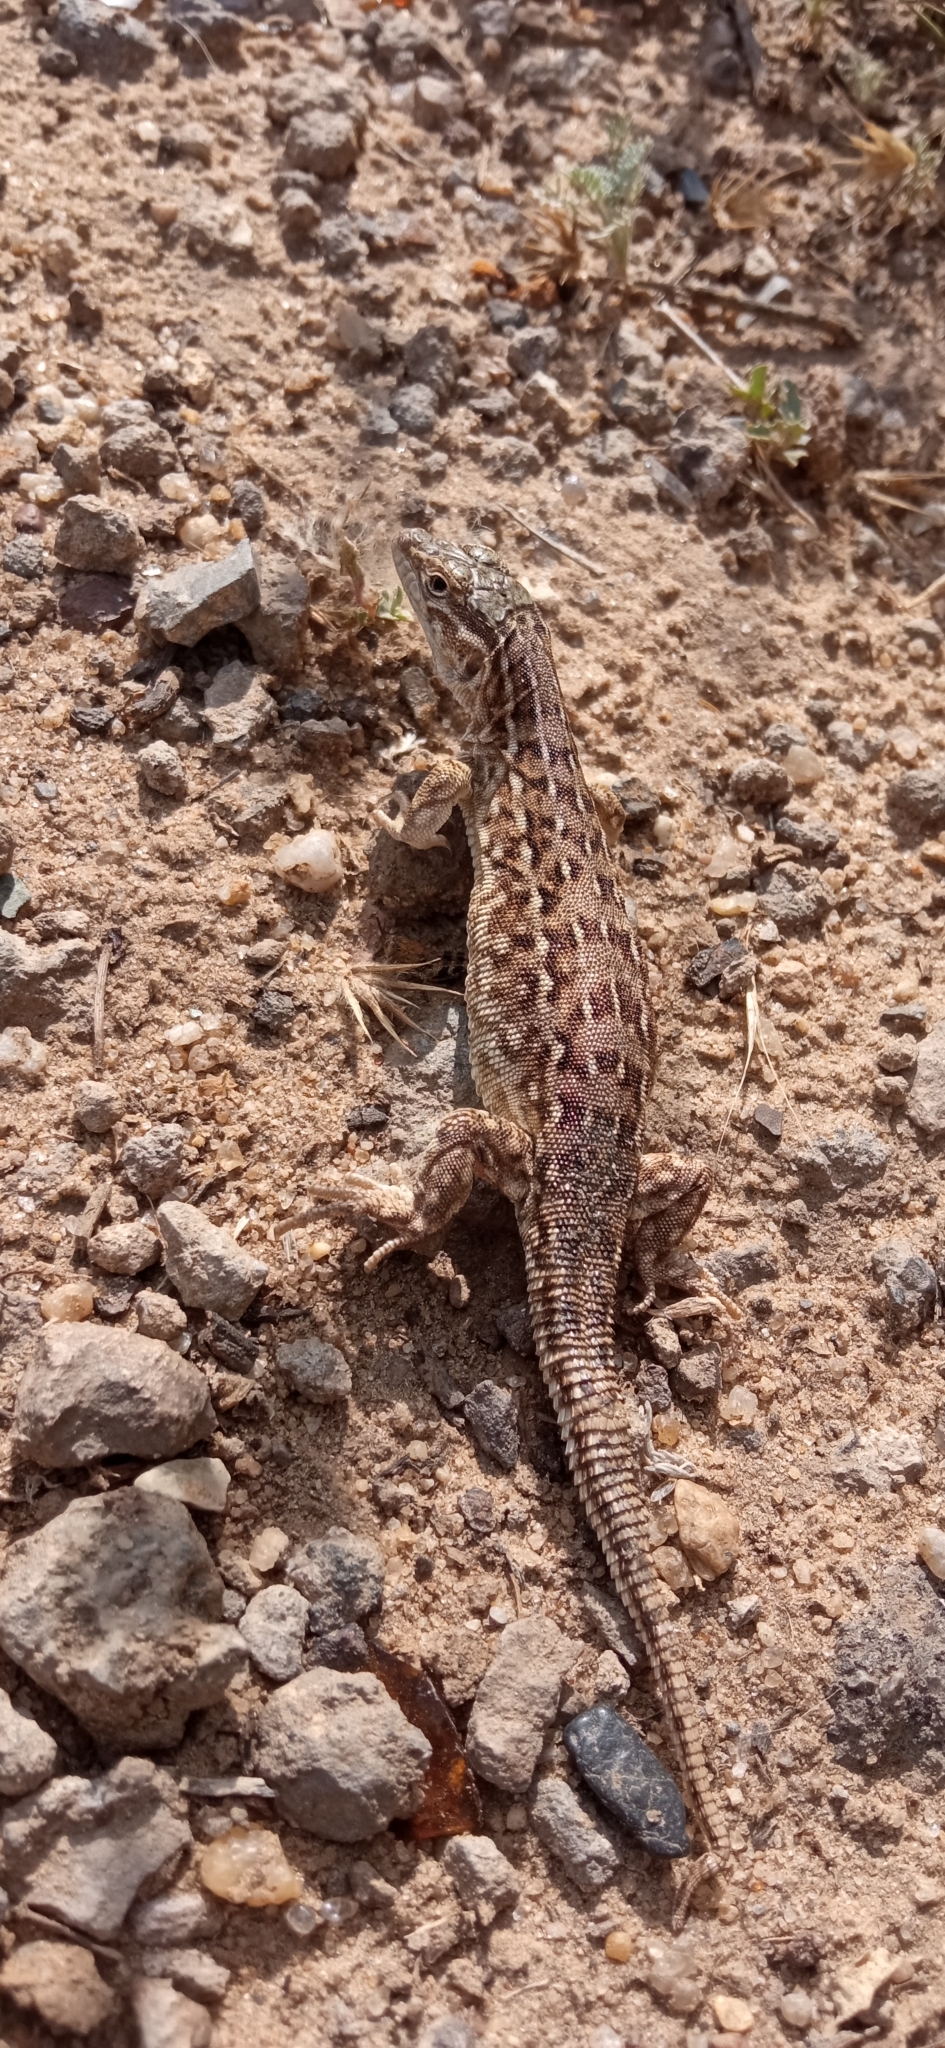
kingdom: Animalia
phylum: Chordata
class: Squamata
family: Lacertidae
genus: Eremias
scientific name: Eremias arguta
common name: Racerunner
